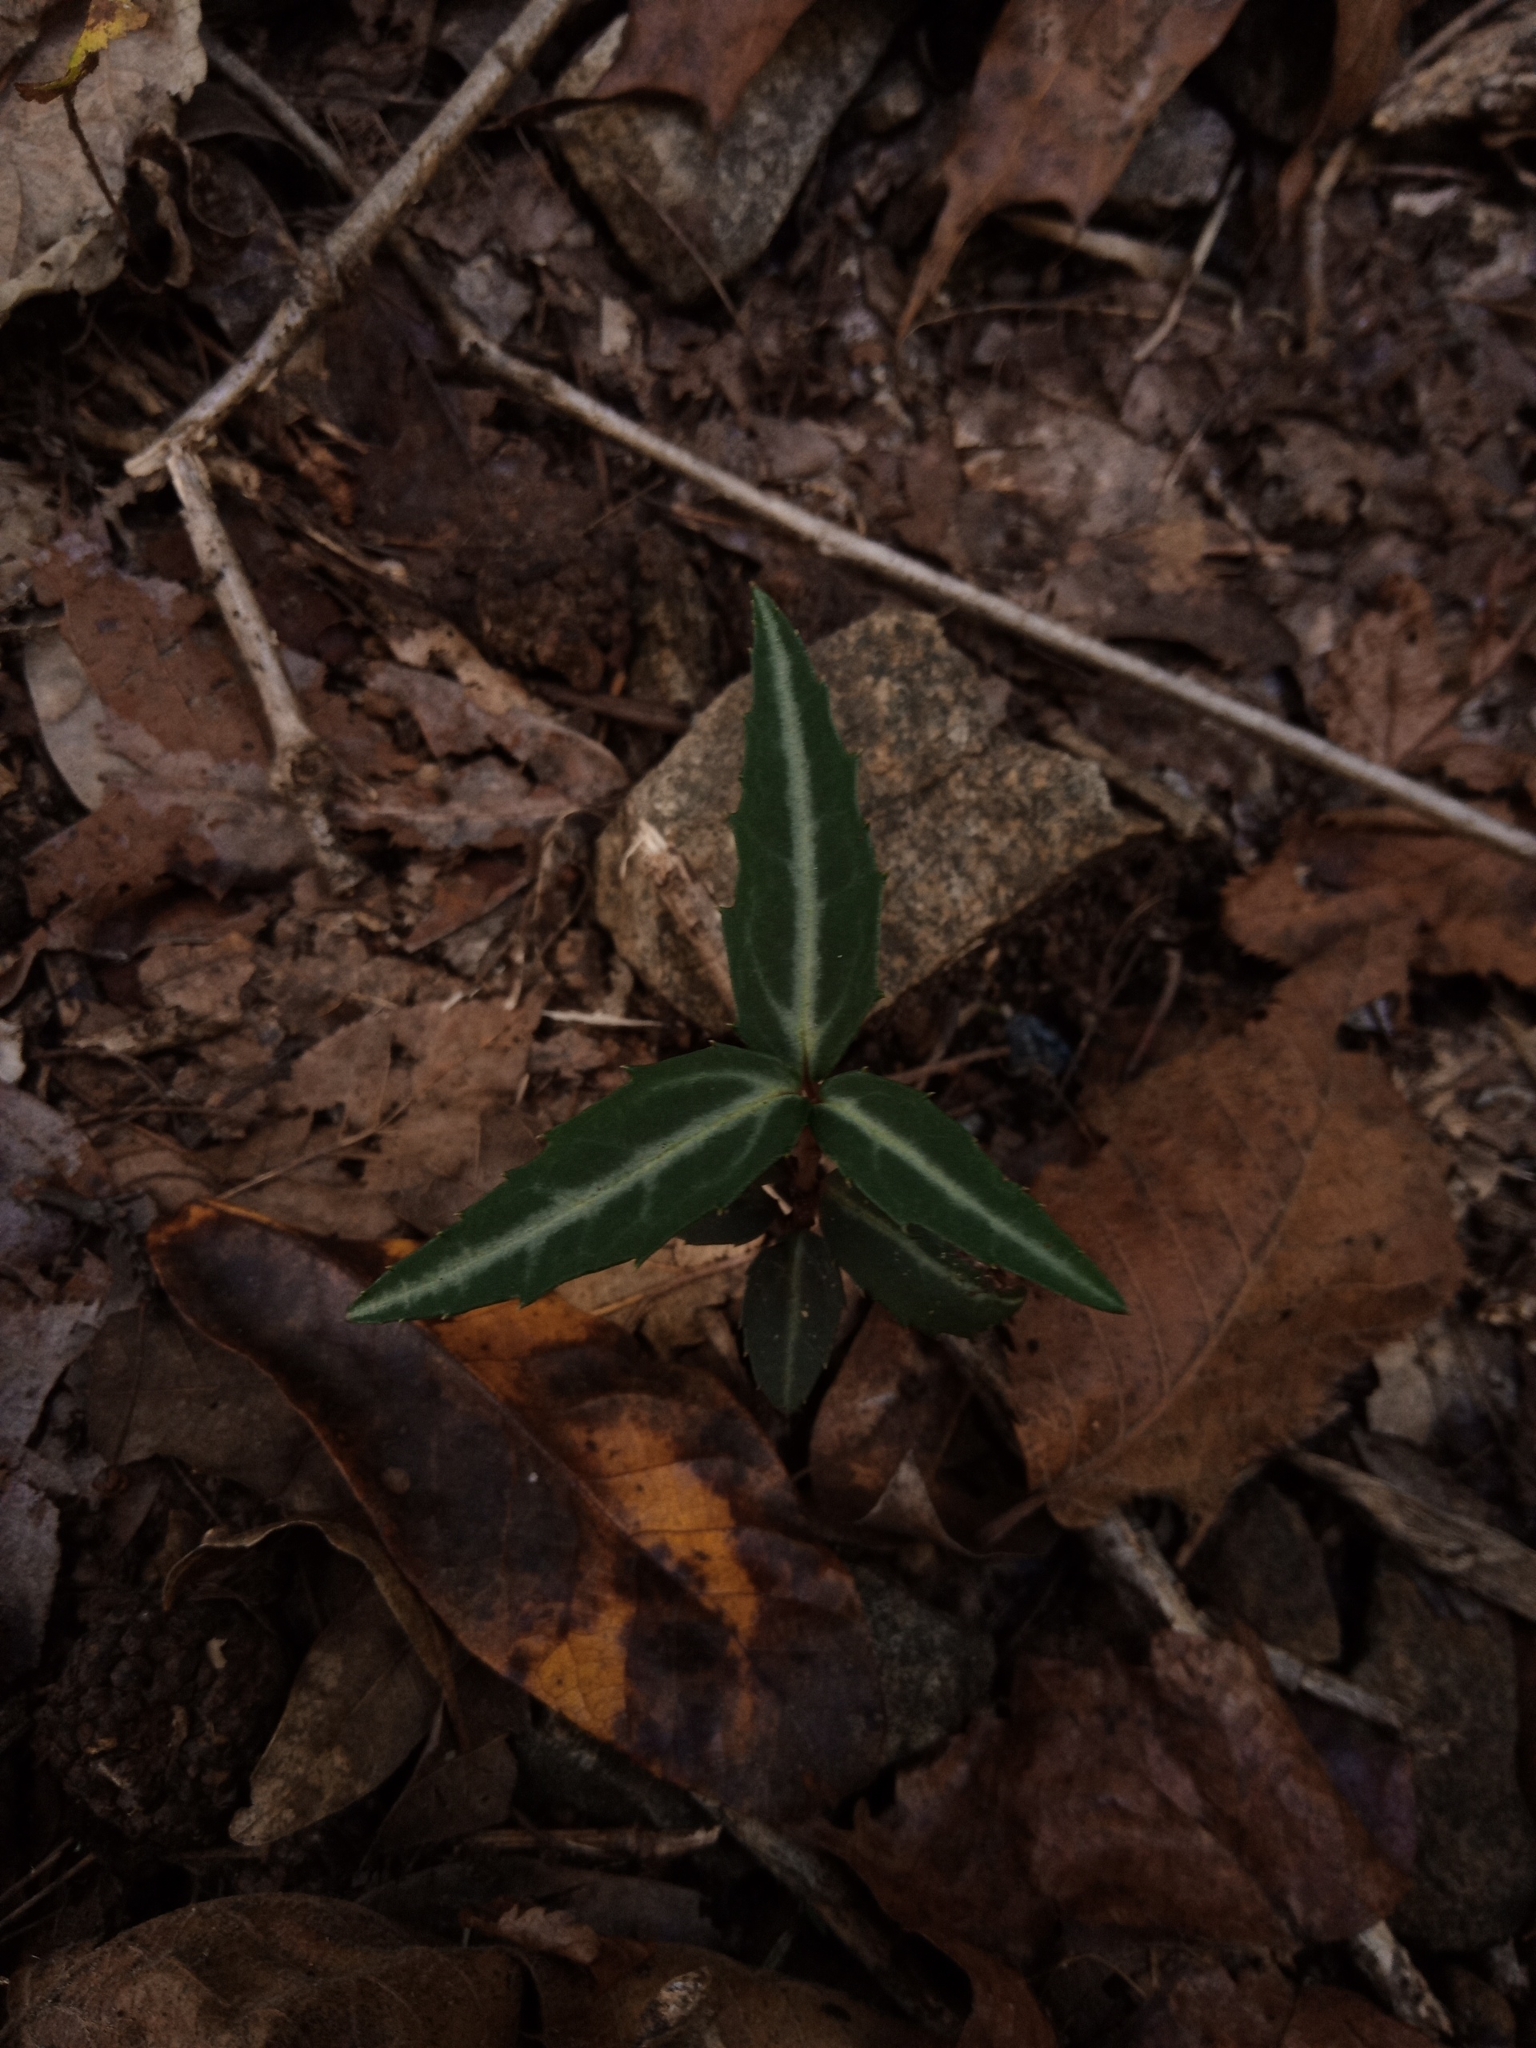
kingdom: Plantae
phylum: Tracheophyta
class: Magnoliopsida
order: Ericales
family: Ericaceae
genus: Chimaphila
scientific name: Chimaphila maculata
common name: Spotted pipsissewa
